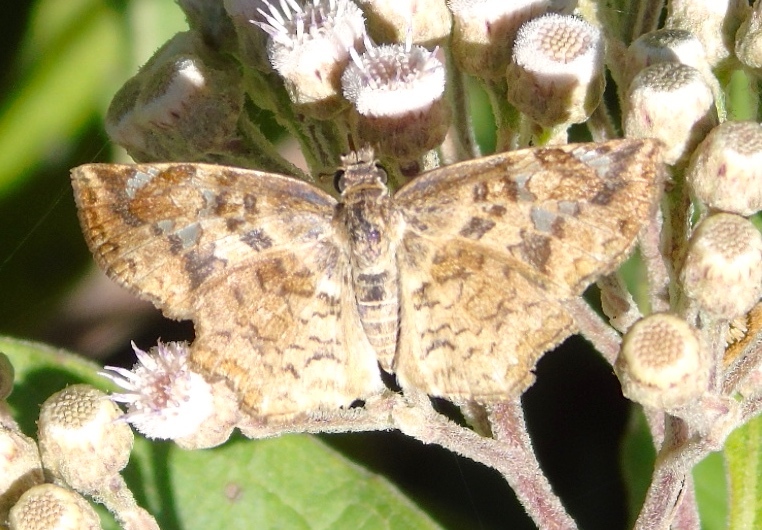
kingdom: Animalia
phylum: Arthropoda
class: Insecta
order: Lepidoptera
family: Hesperiidae
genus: Antigonus
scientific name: Antigonus erosus
